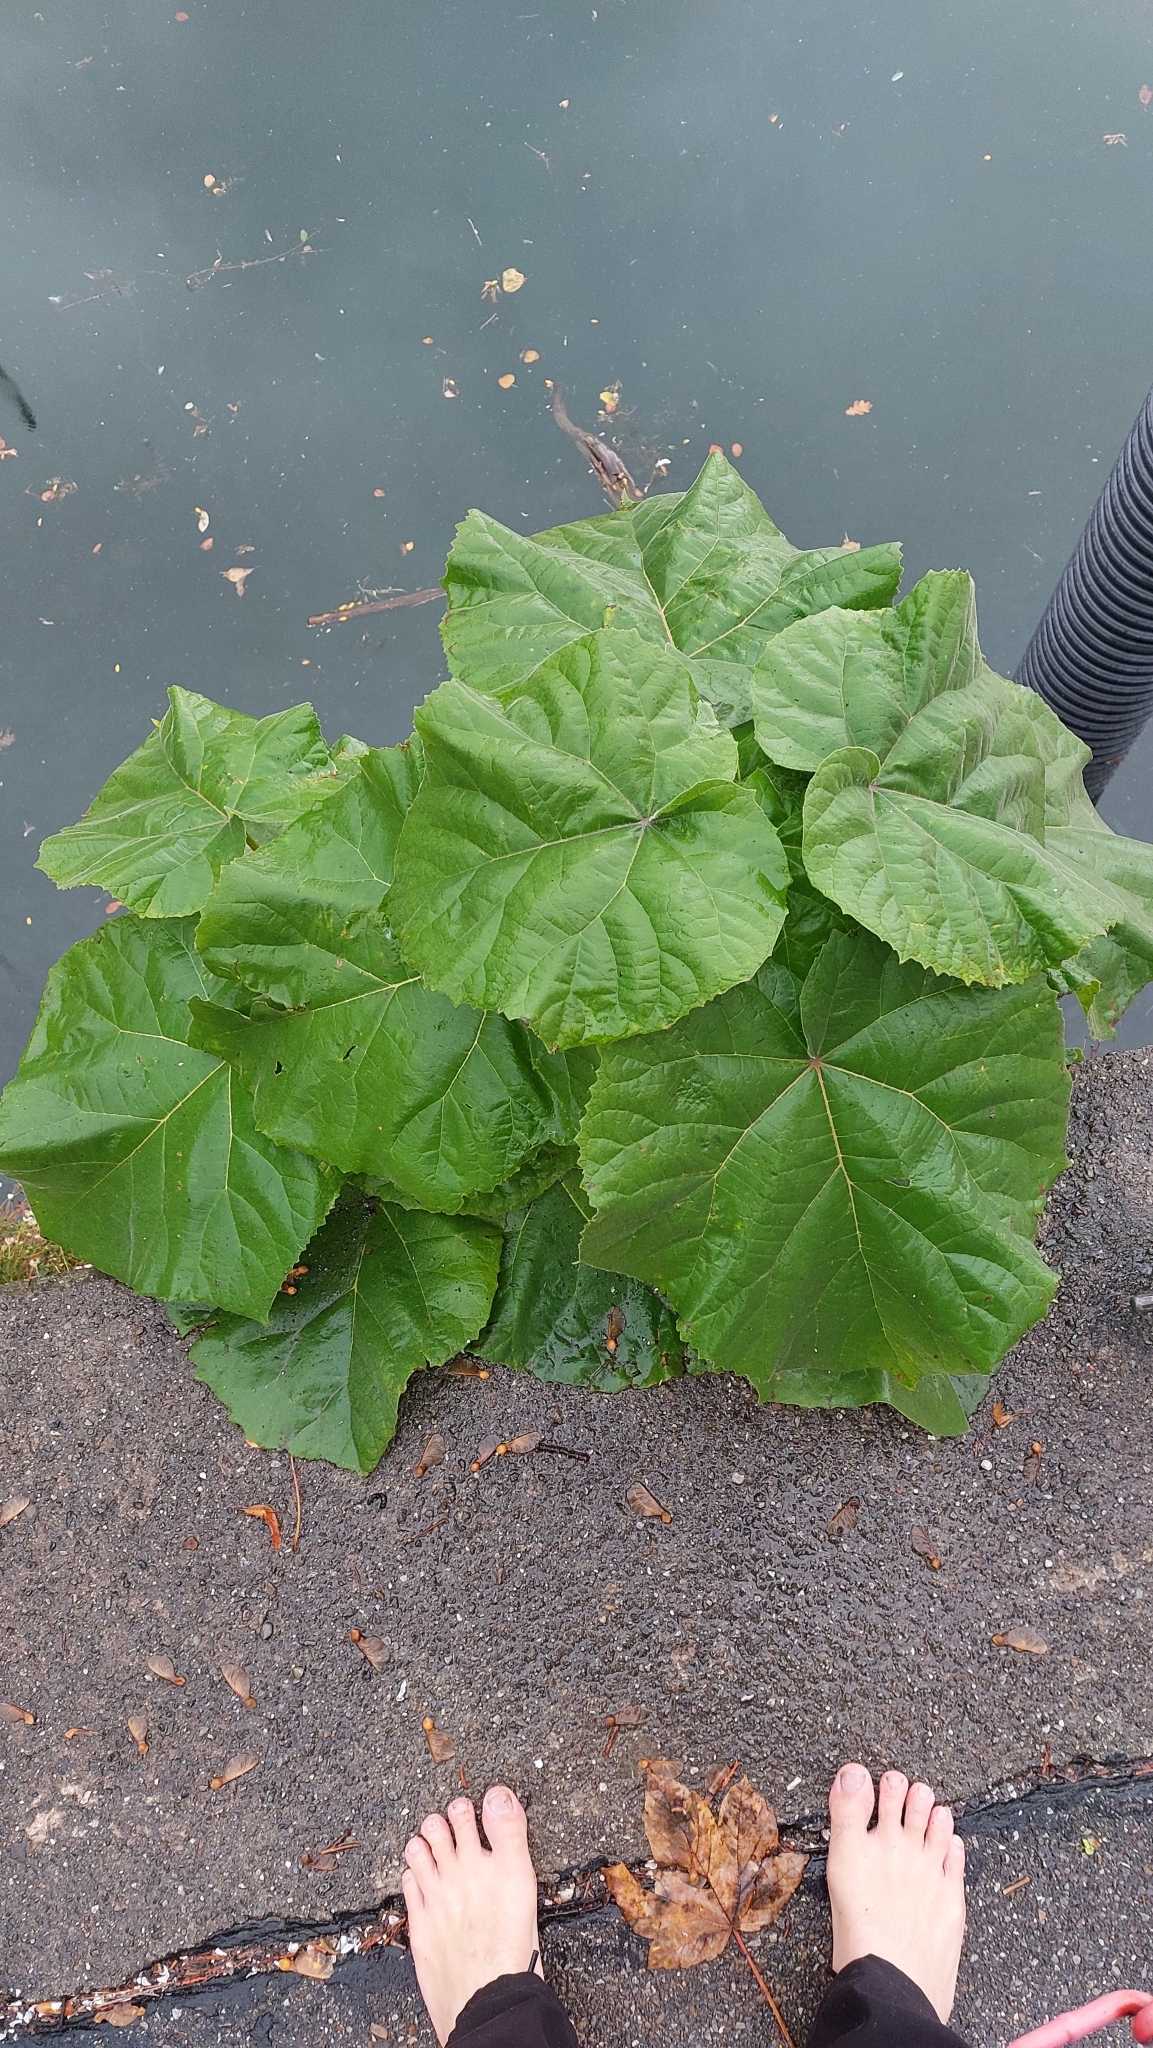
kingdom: Plantae
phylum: Tracheophyta
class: Magnoliopsida
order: Lamiales
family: Paulowniaceae
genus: Paulownia
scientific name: Paulownia tomentosa
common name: Foxglove-tree
